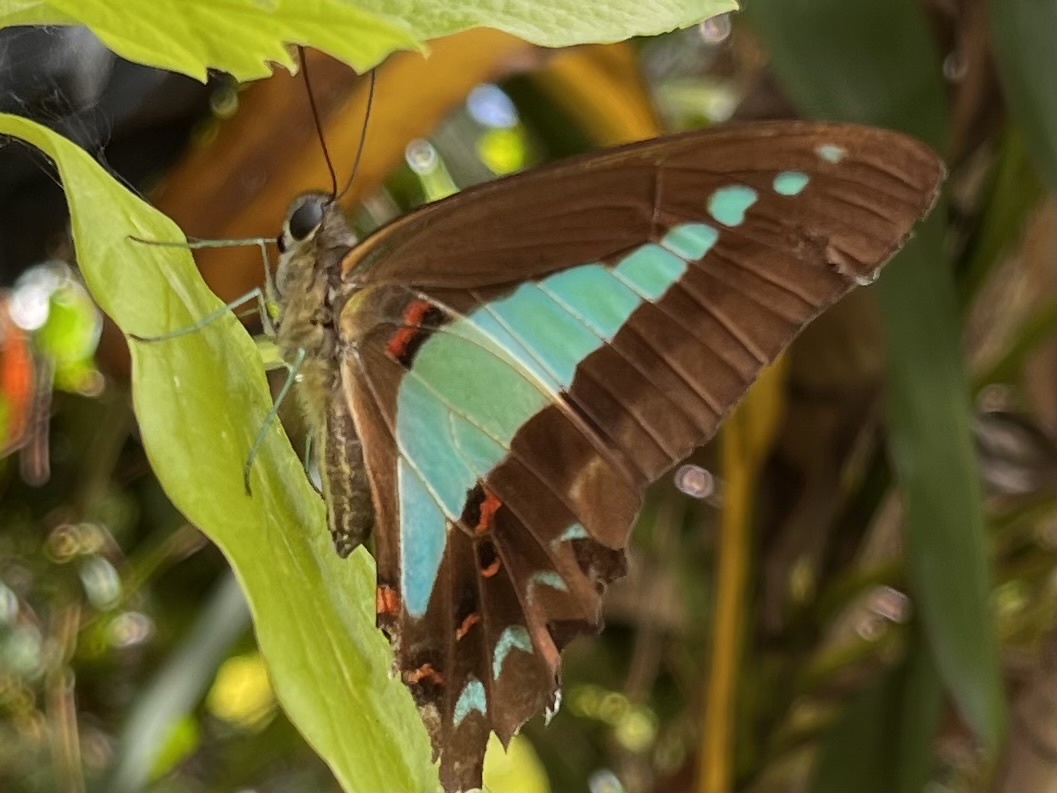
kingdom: Animalia
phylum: Arthropoda
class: Insecta
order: Lepidoptera
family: Papilionidae
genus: Graphium
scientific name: Graphium
